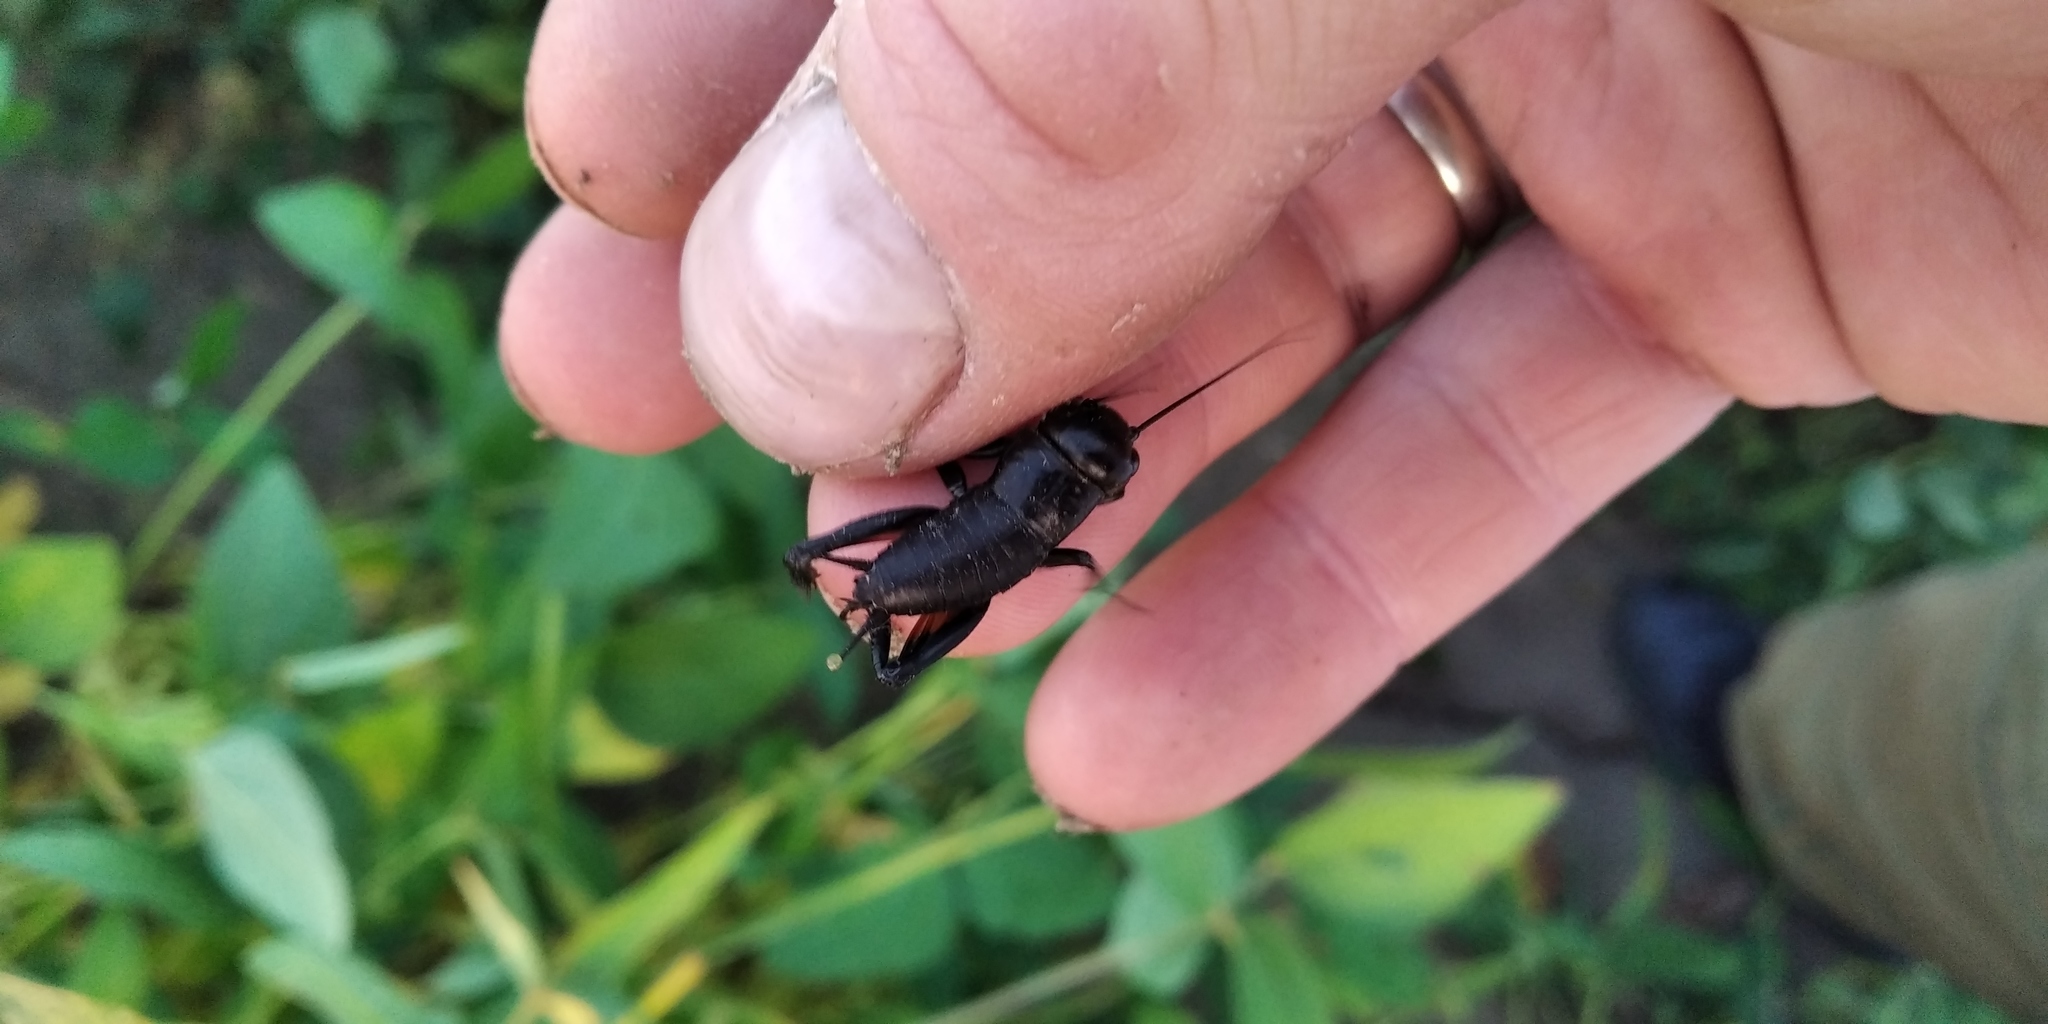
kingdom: Animalia
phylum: Arthropoda
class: Insecta
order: Orthoptera
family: Gryllidae
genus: Gryllus
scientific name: Gryllus campestris
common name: Field cricket
